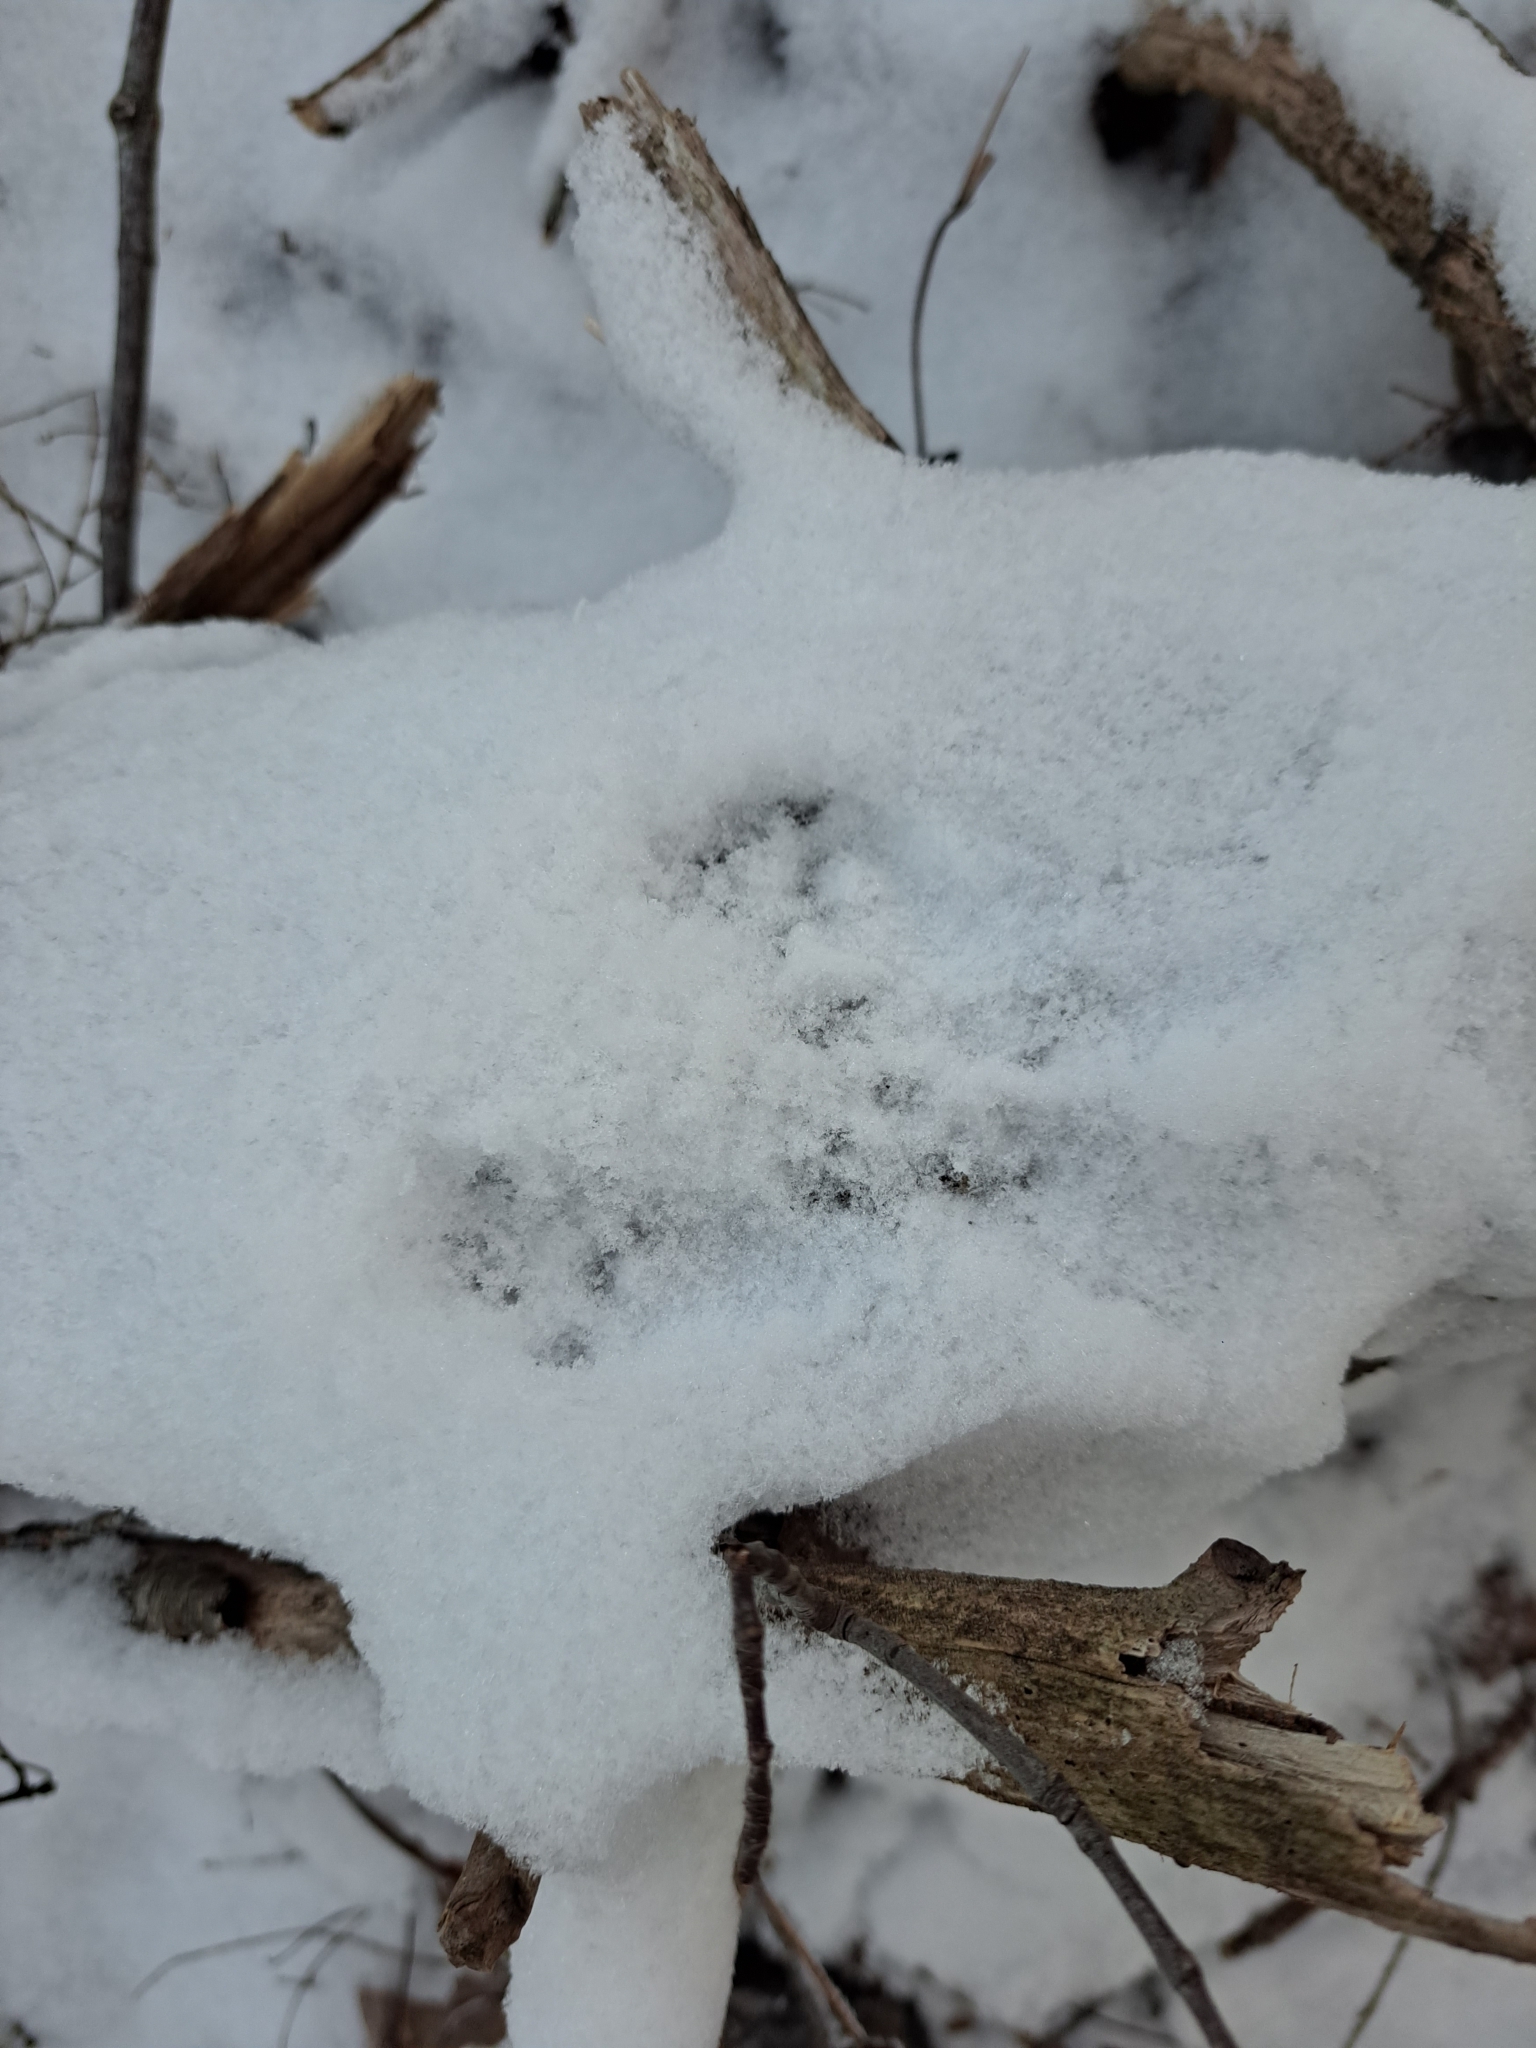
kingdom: Animalia
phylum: Chordata
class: Mammalia
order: Rodentia
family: Sciuridae
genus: Tamiasciurus
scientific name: Tamiasciurus hudsonicus
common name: Red squirrel
